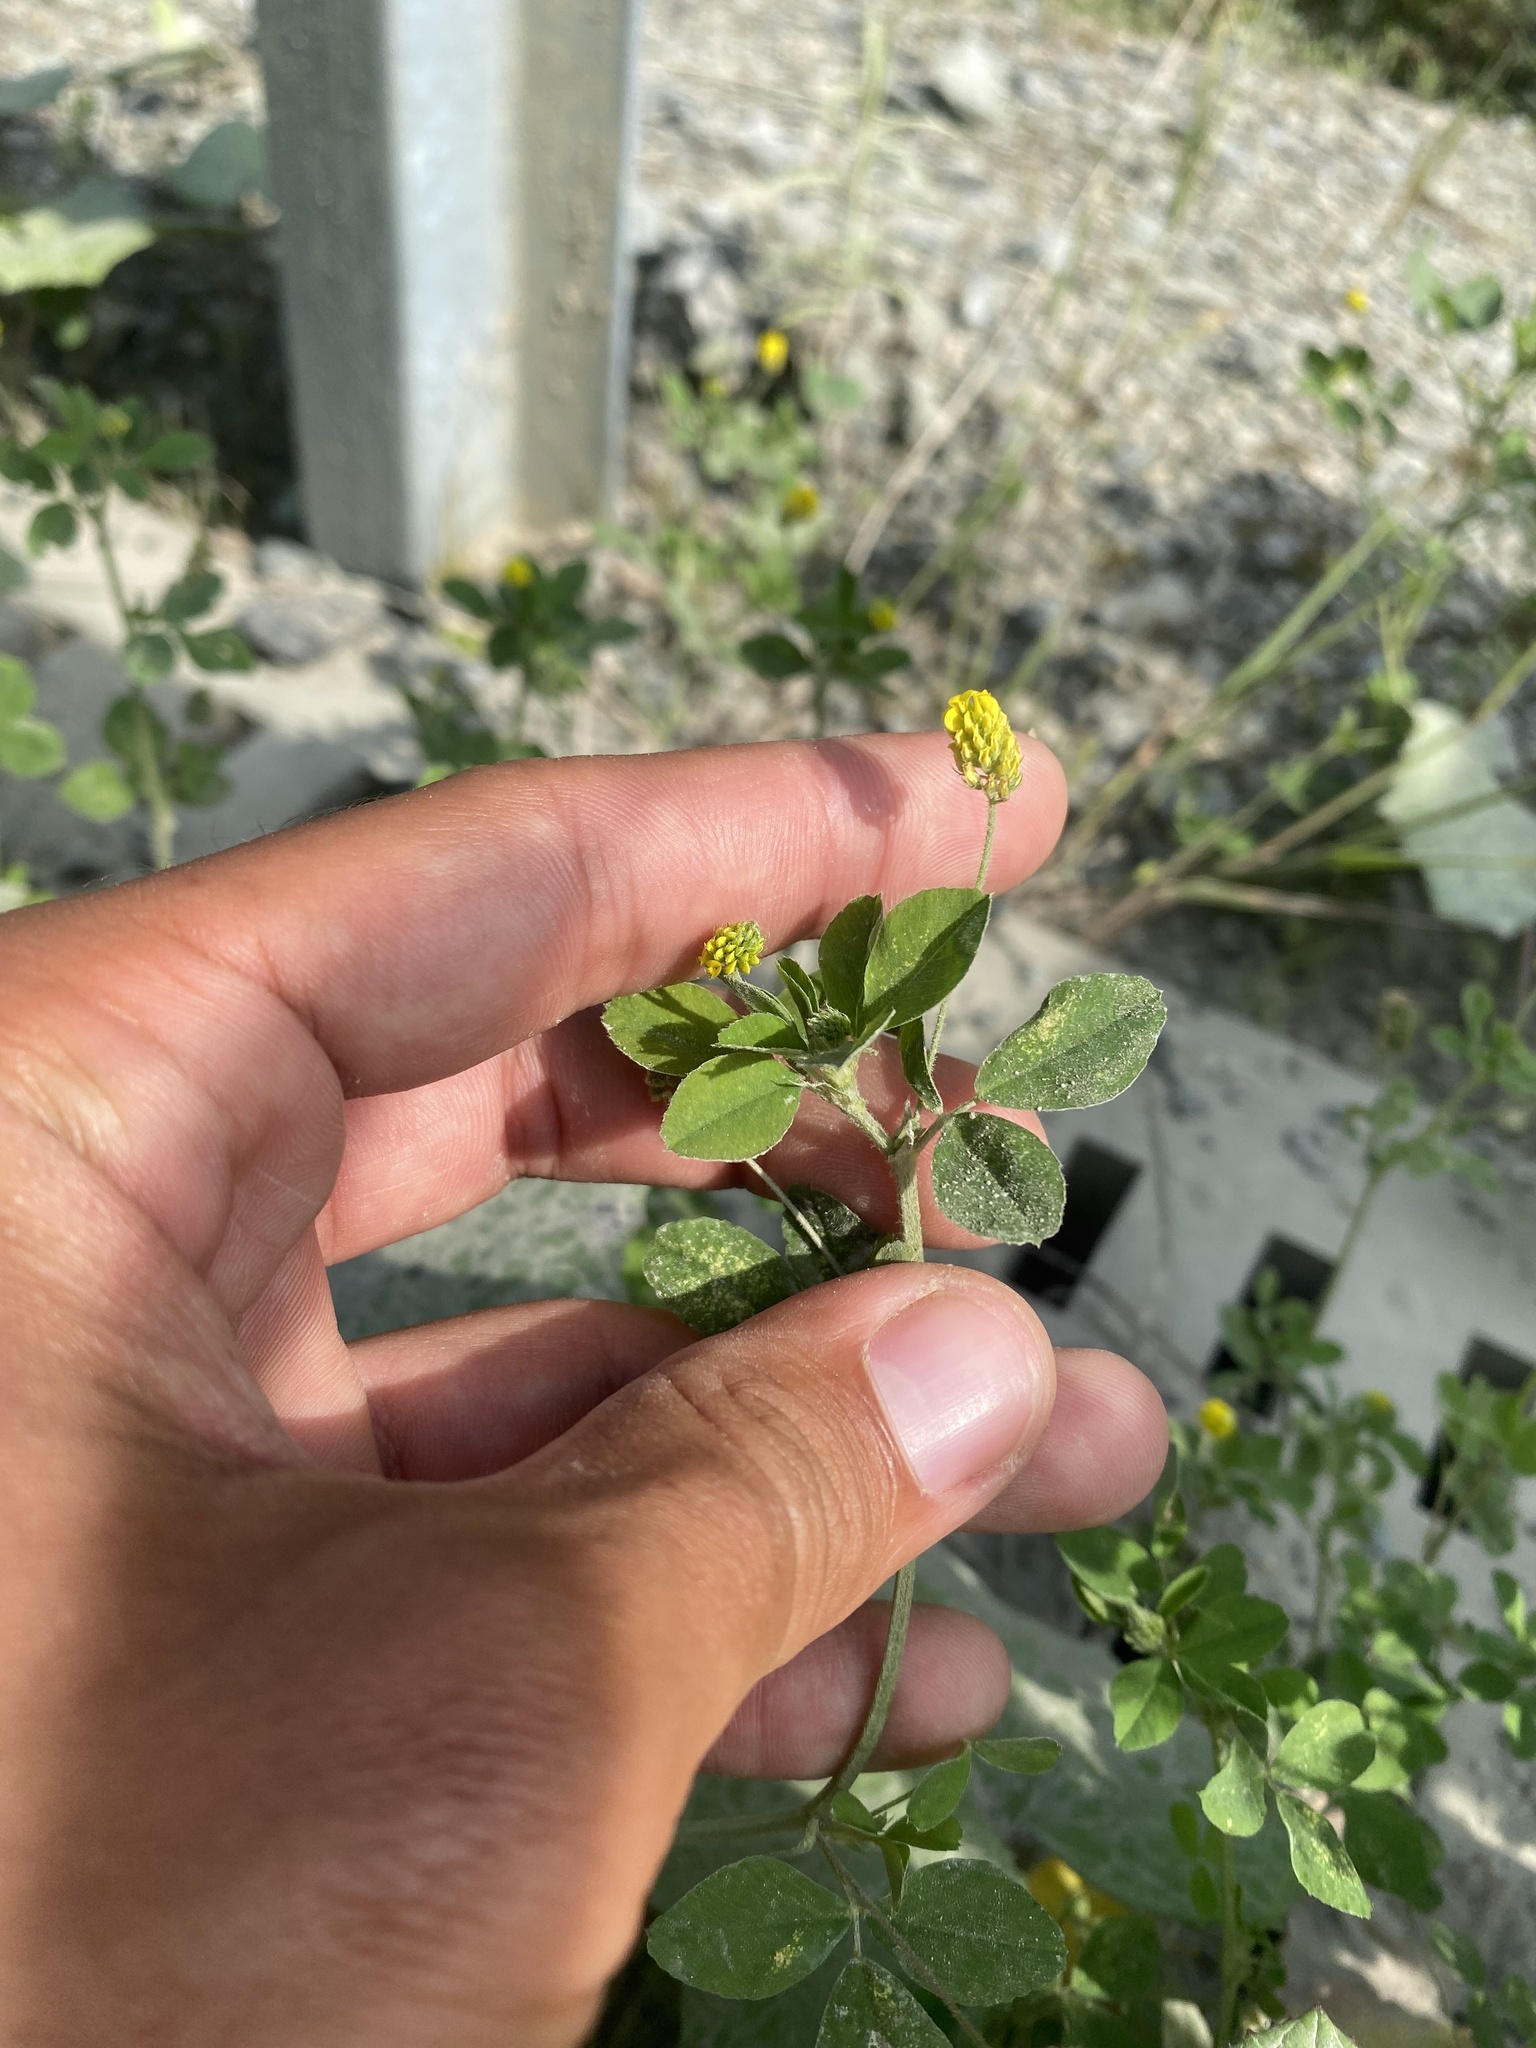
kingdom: Plantae
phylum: Tracheophyta
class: Magnoliopsida
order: Fabales
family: Fabaceae
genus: Medicago
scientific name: Medicago lupulina
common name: Black medick
